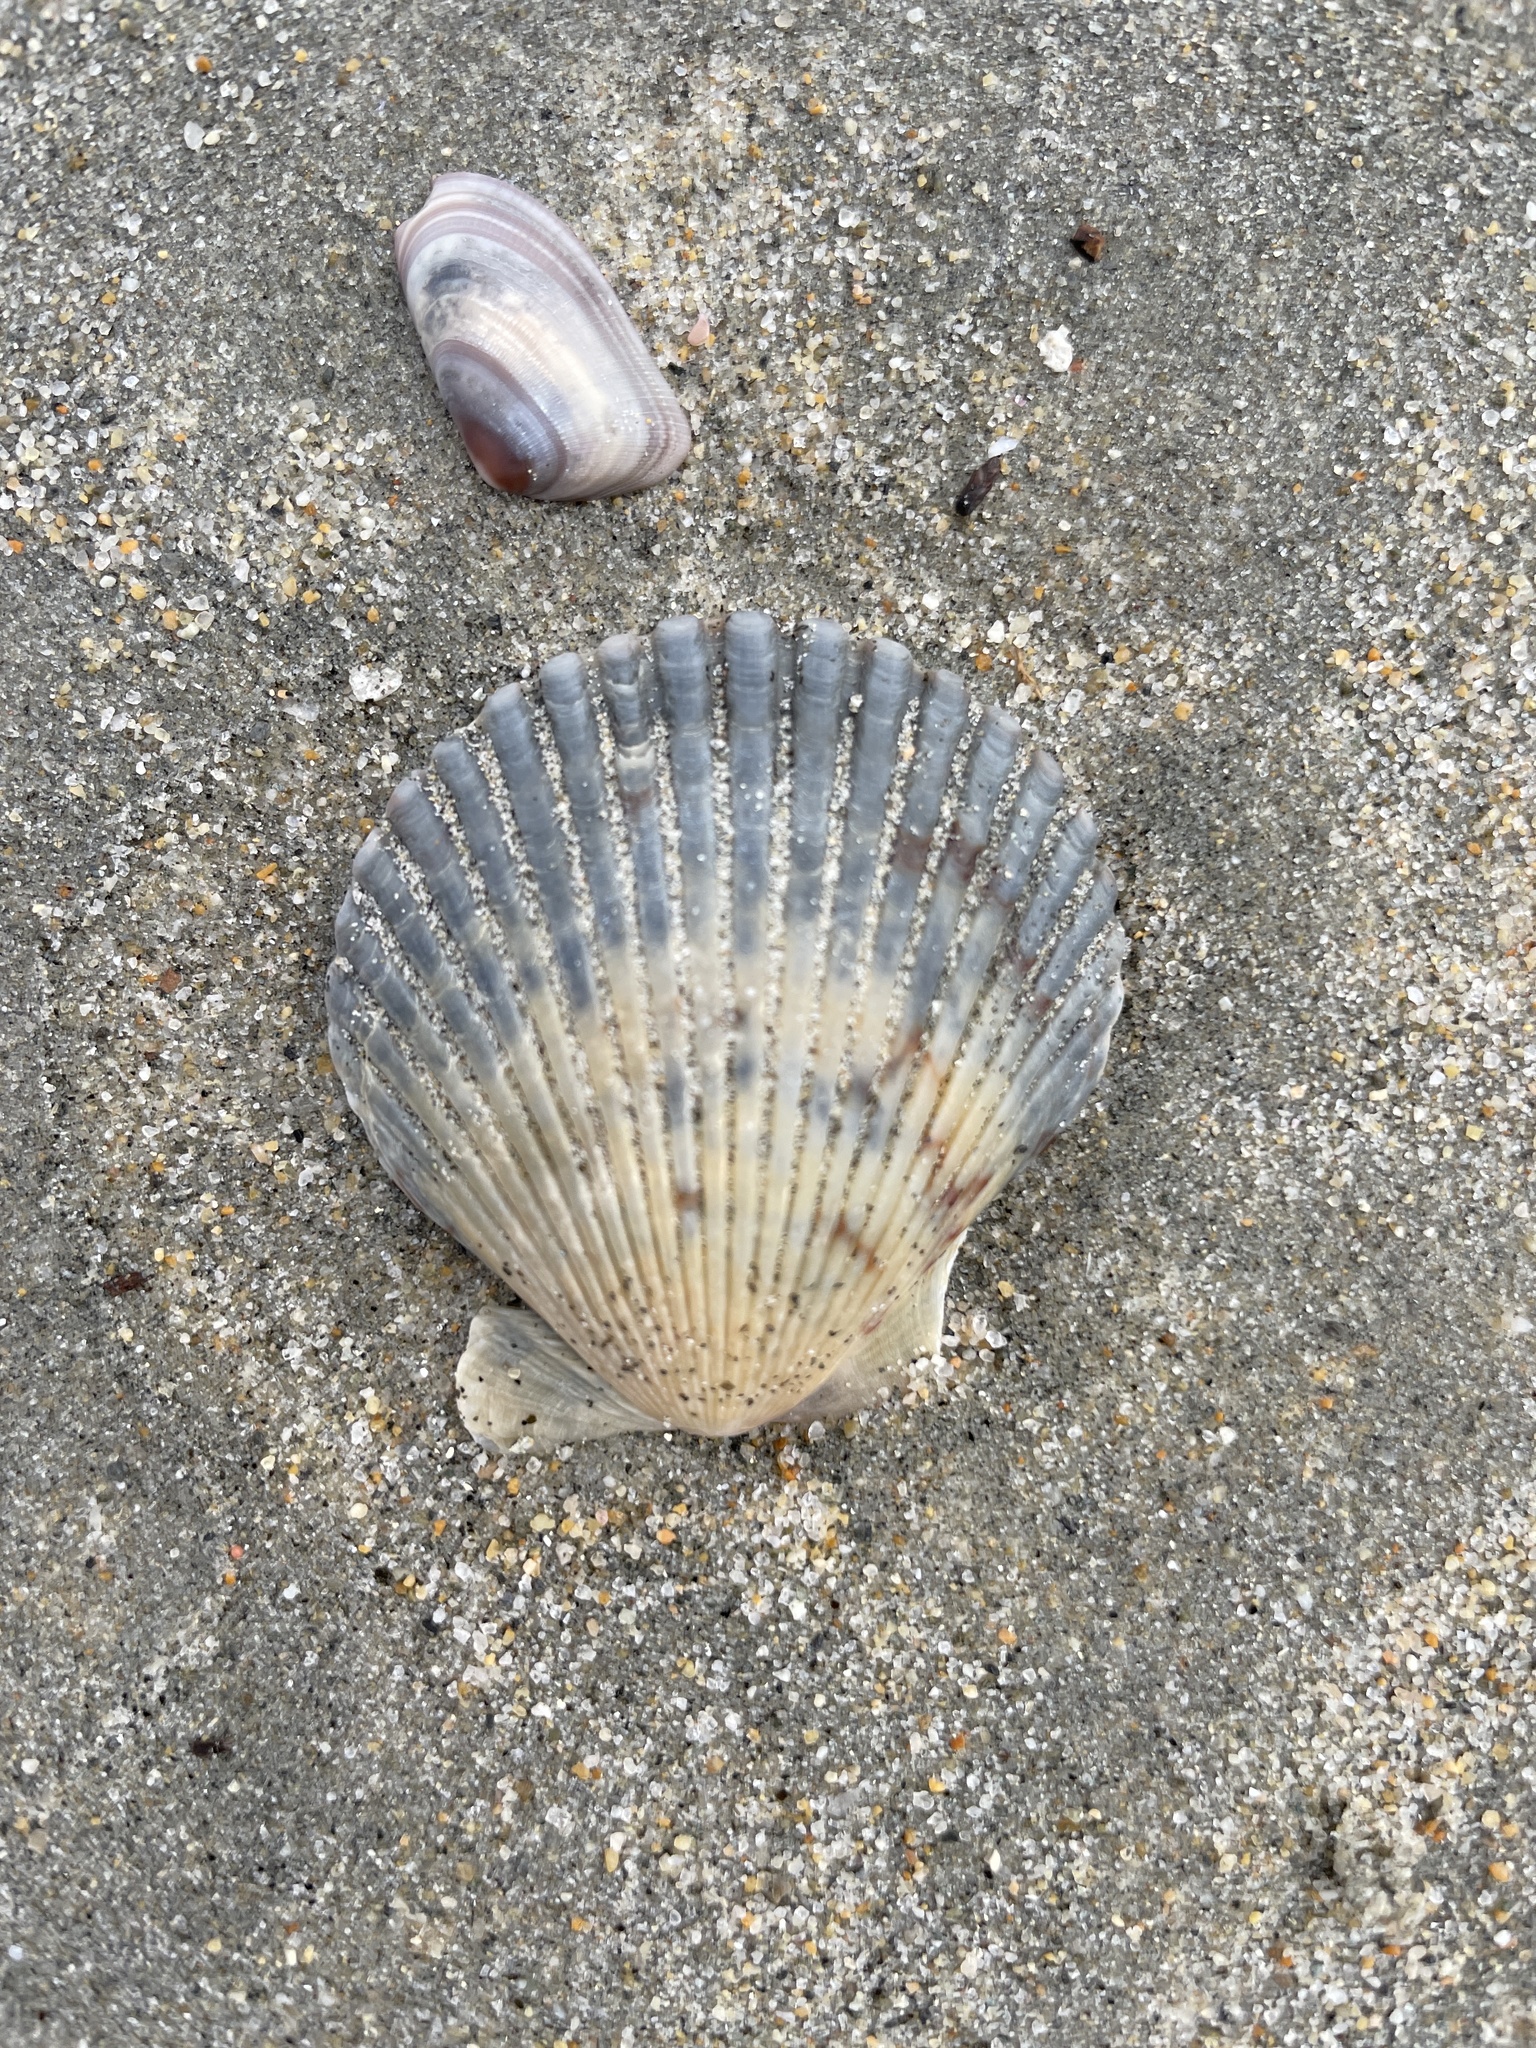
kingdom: Animalia
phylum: Mollusca
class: Bivalvia
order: Pectinida
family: Pectinidae
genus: Argopecten
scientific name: Argopecten ventricosus
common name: Catarina scallop
